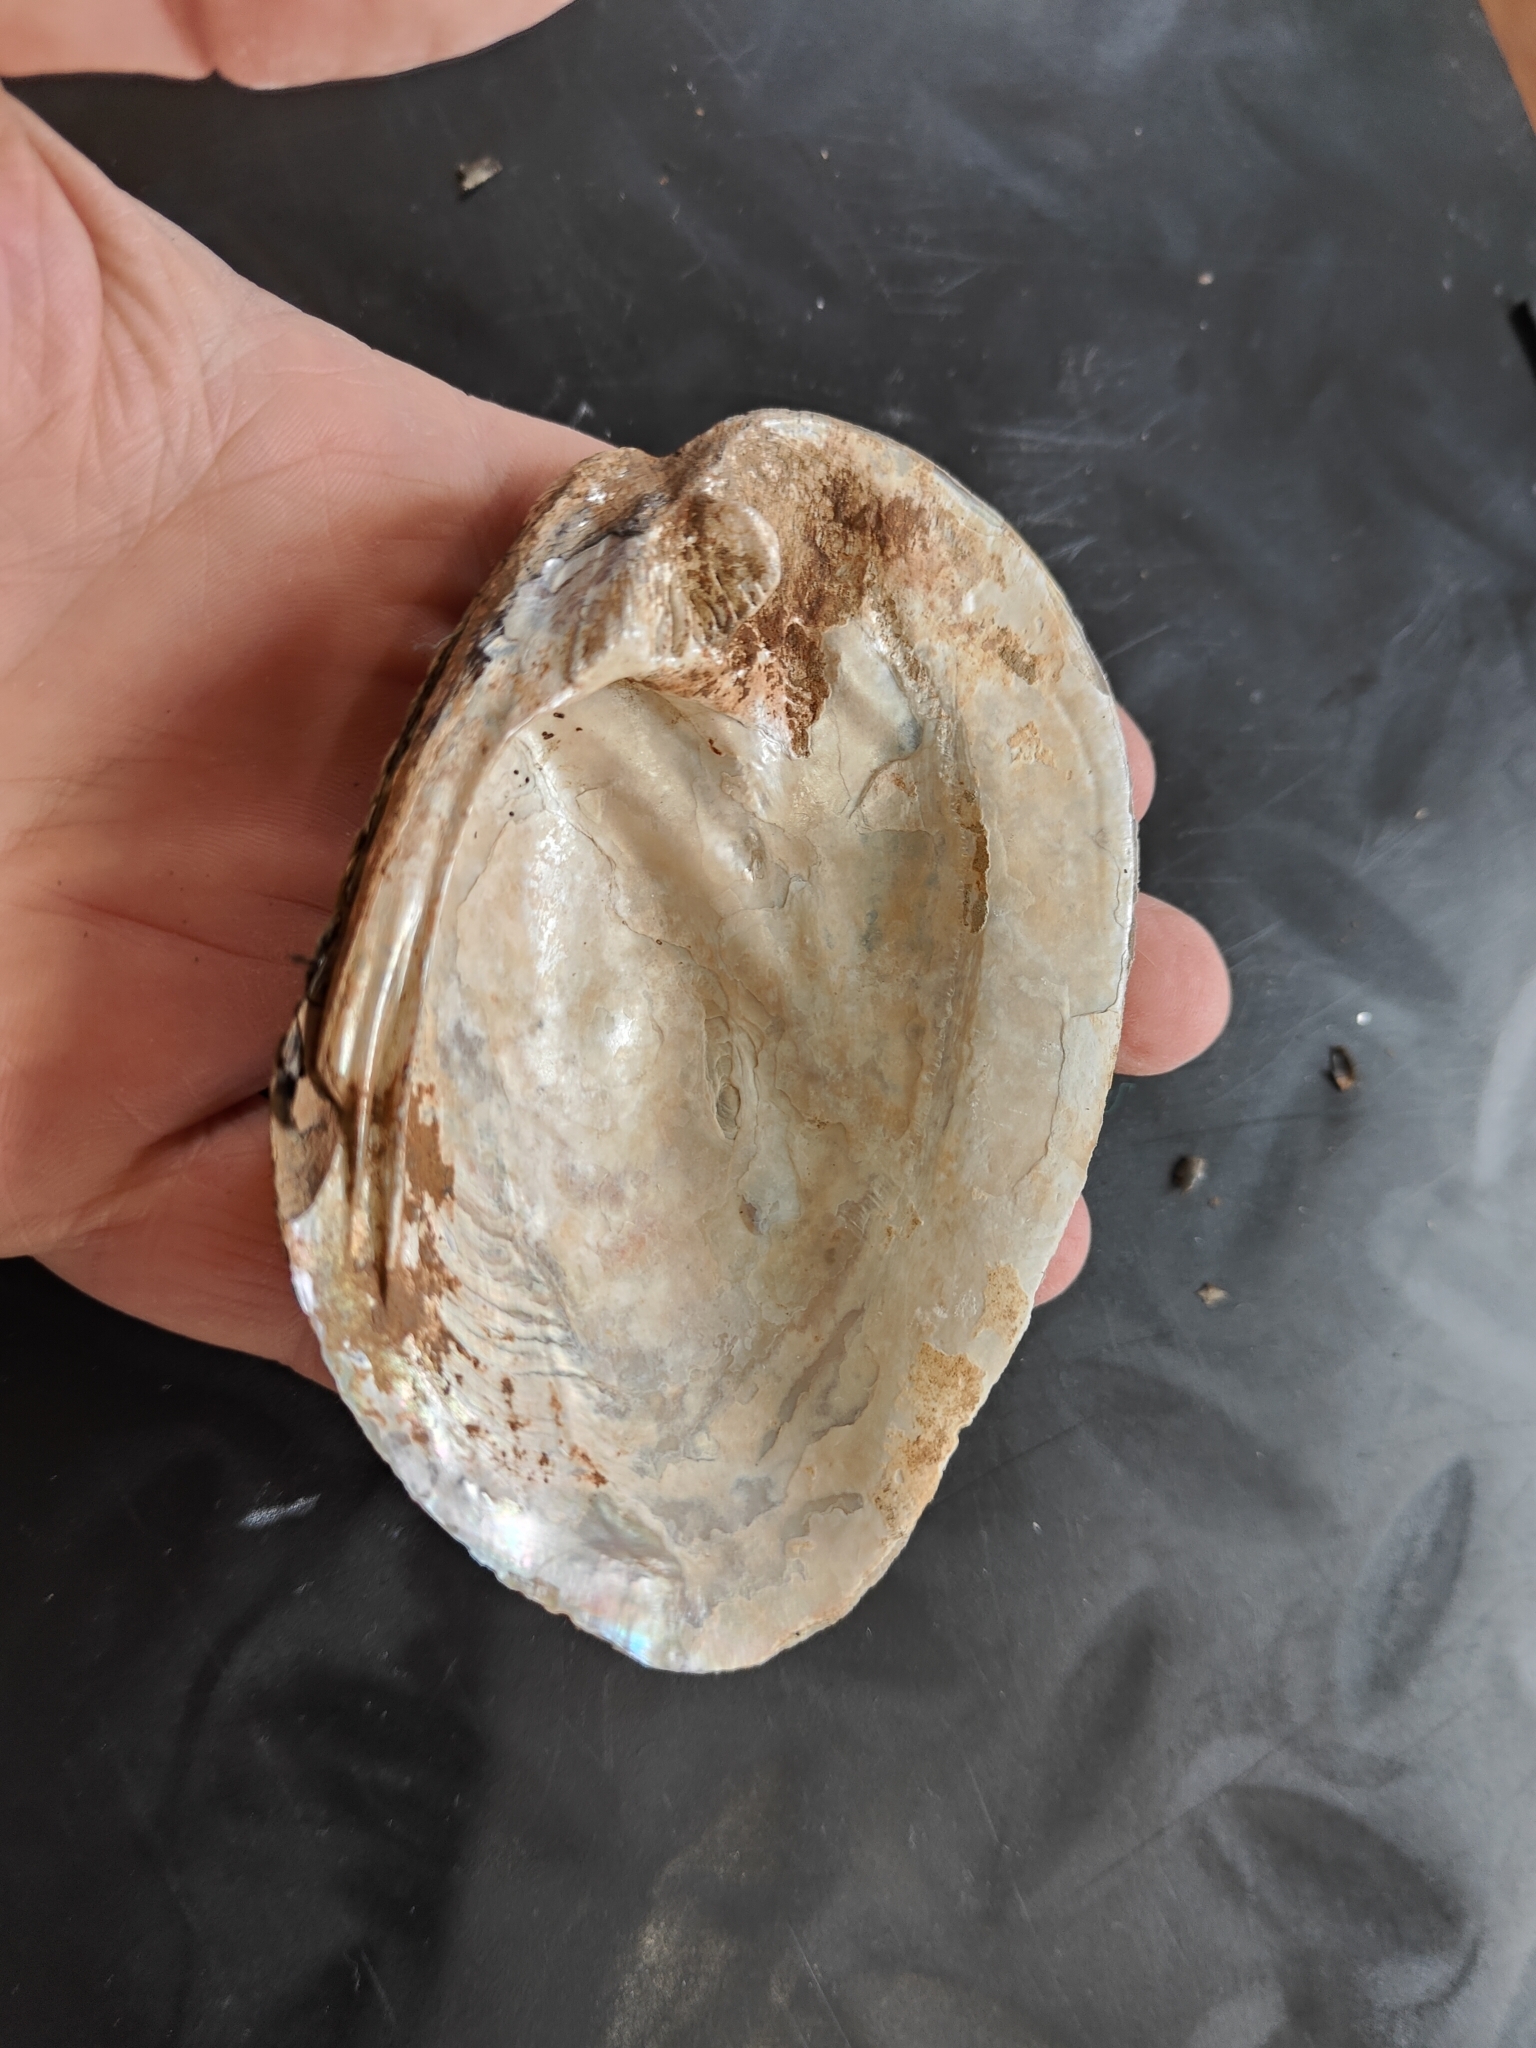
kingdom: Animalia
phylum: Mollusca
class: Bivalvia
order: Unionida
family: Unionidae
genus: Amblema
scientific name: Amblema plicata
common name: Threeridge
